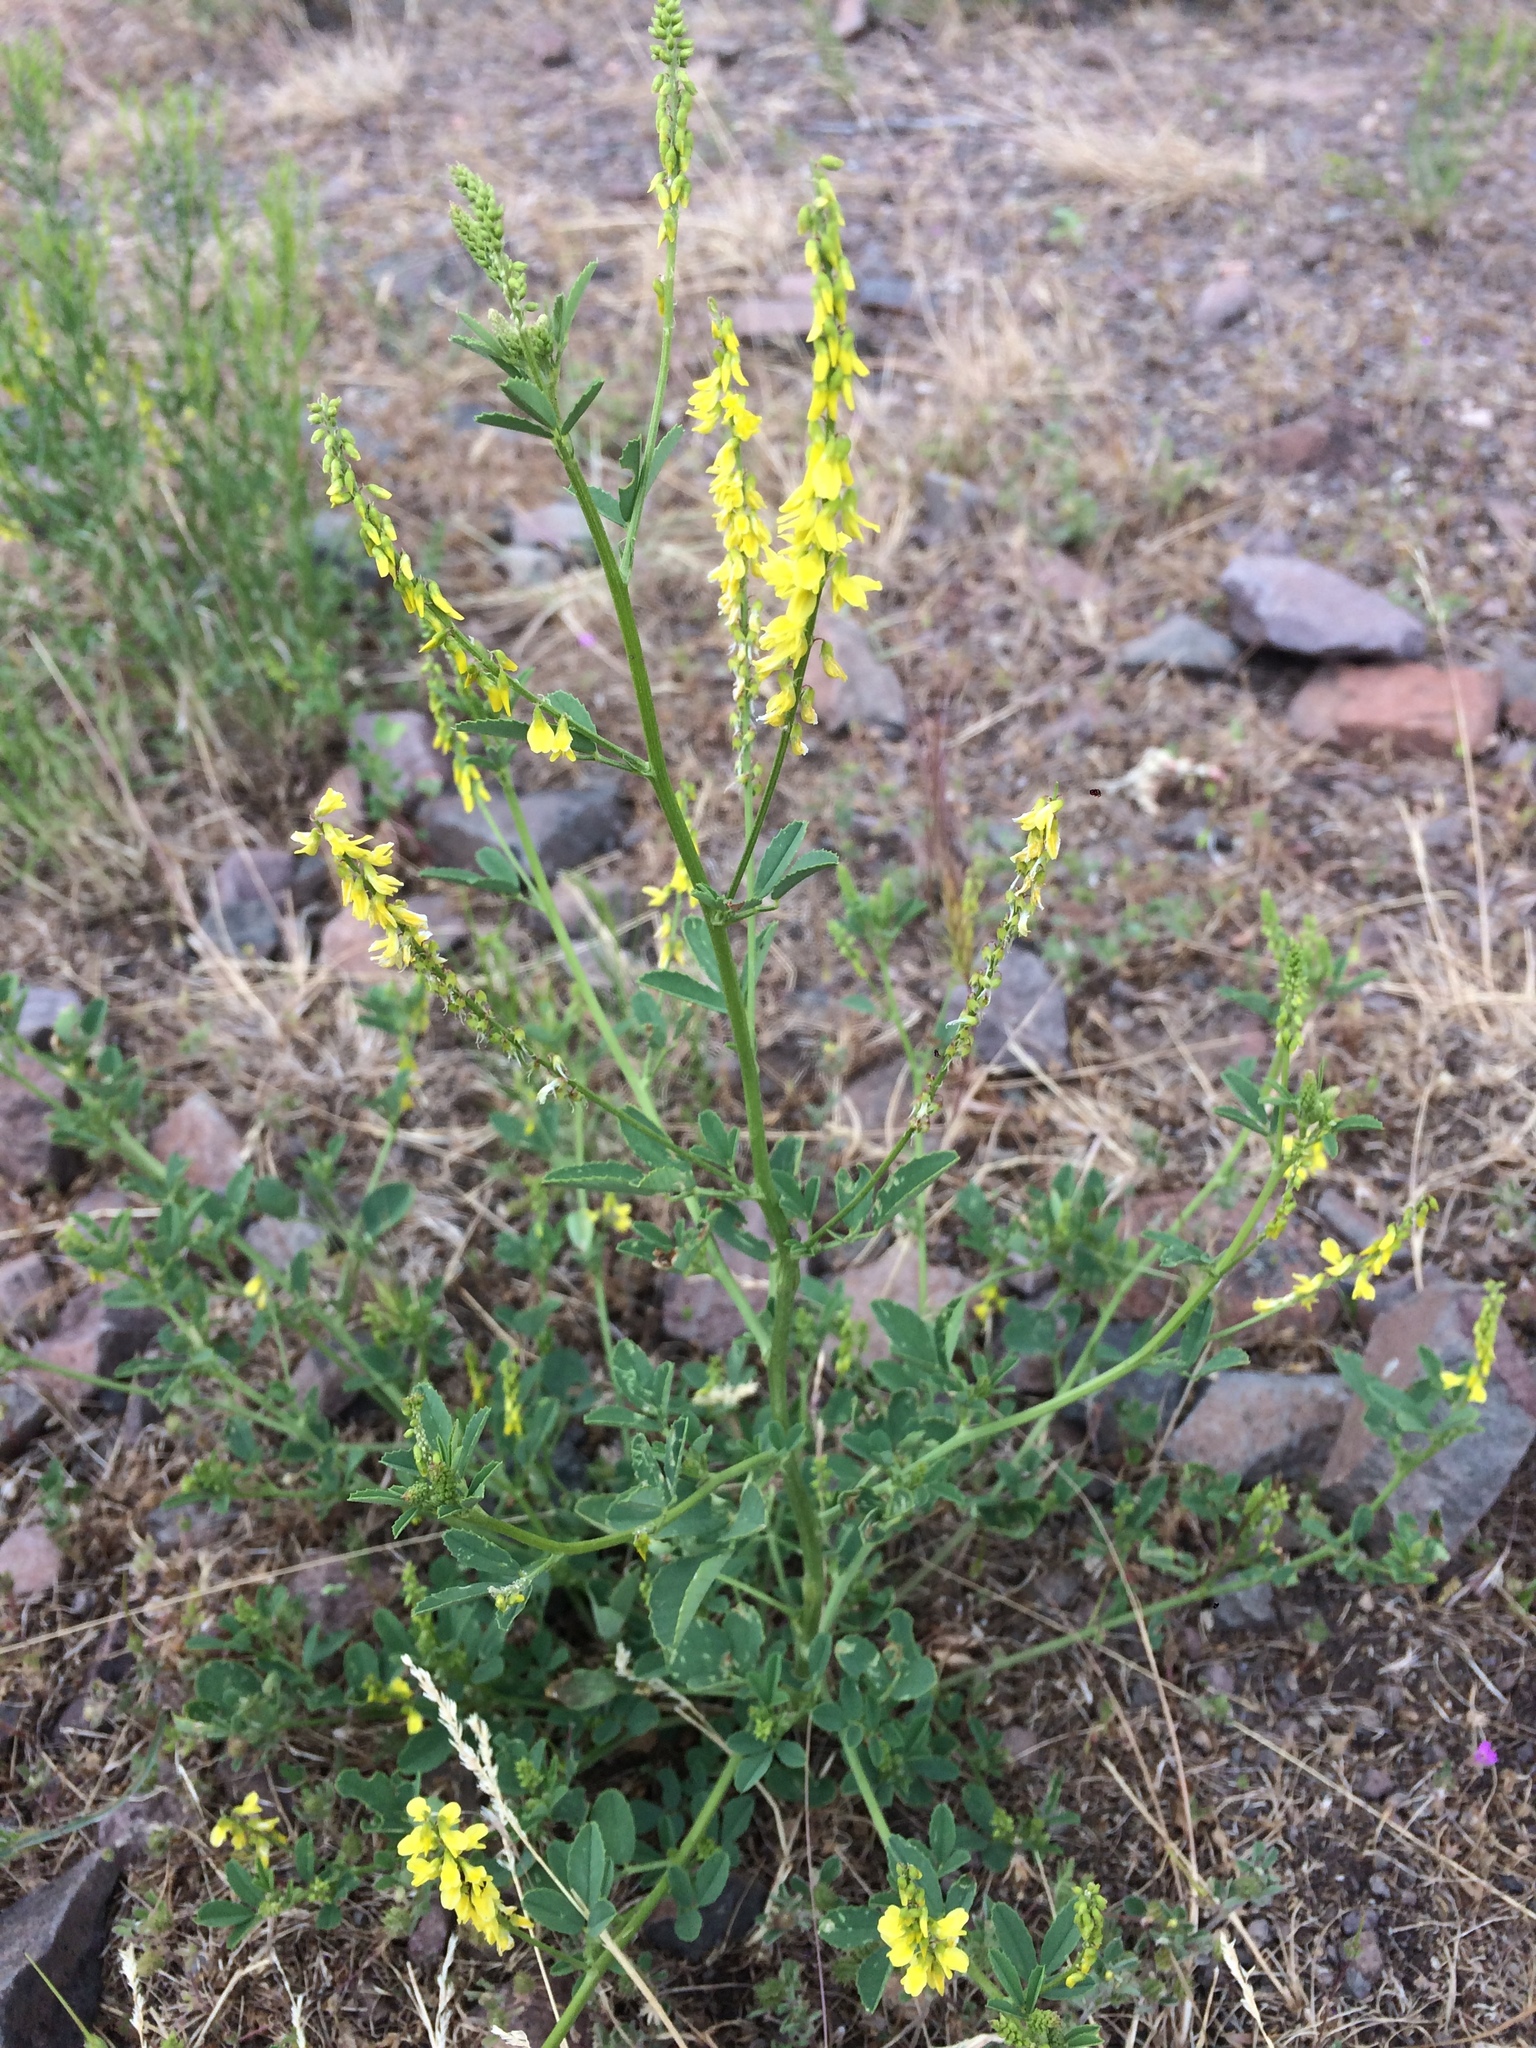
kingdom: Plantae
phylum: Tracheophyta
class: Magnoliopsida
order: Fabales
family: Fabaceae
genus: Melilotus
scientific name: Melilotus officinalis
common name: Sweetclover
